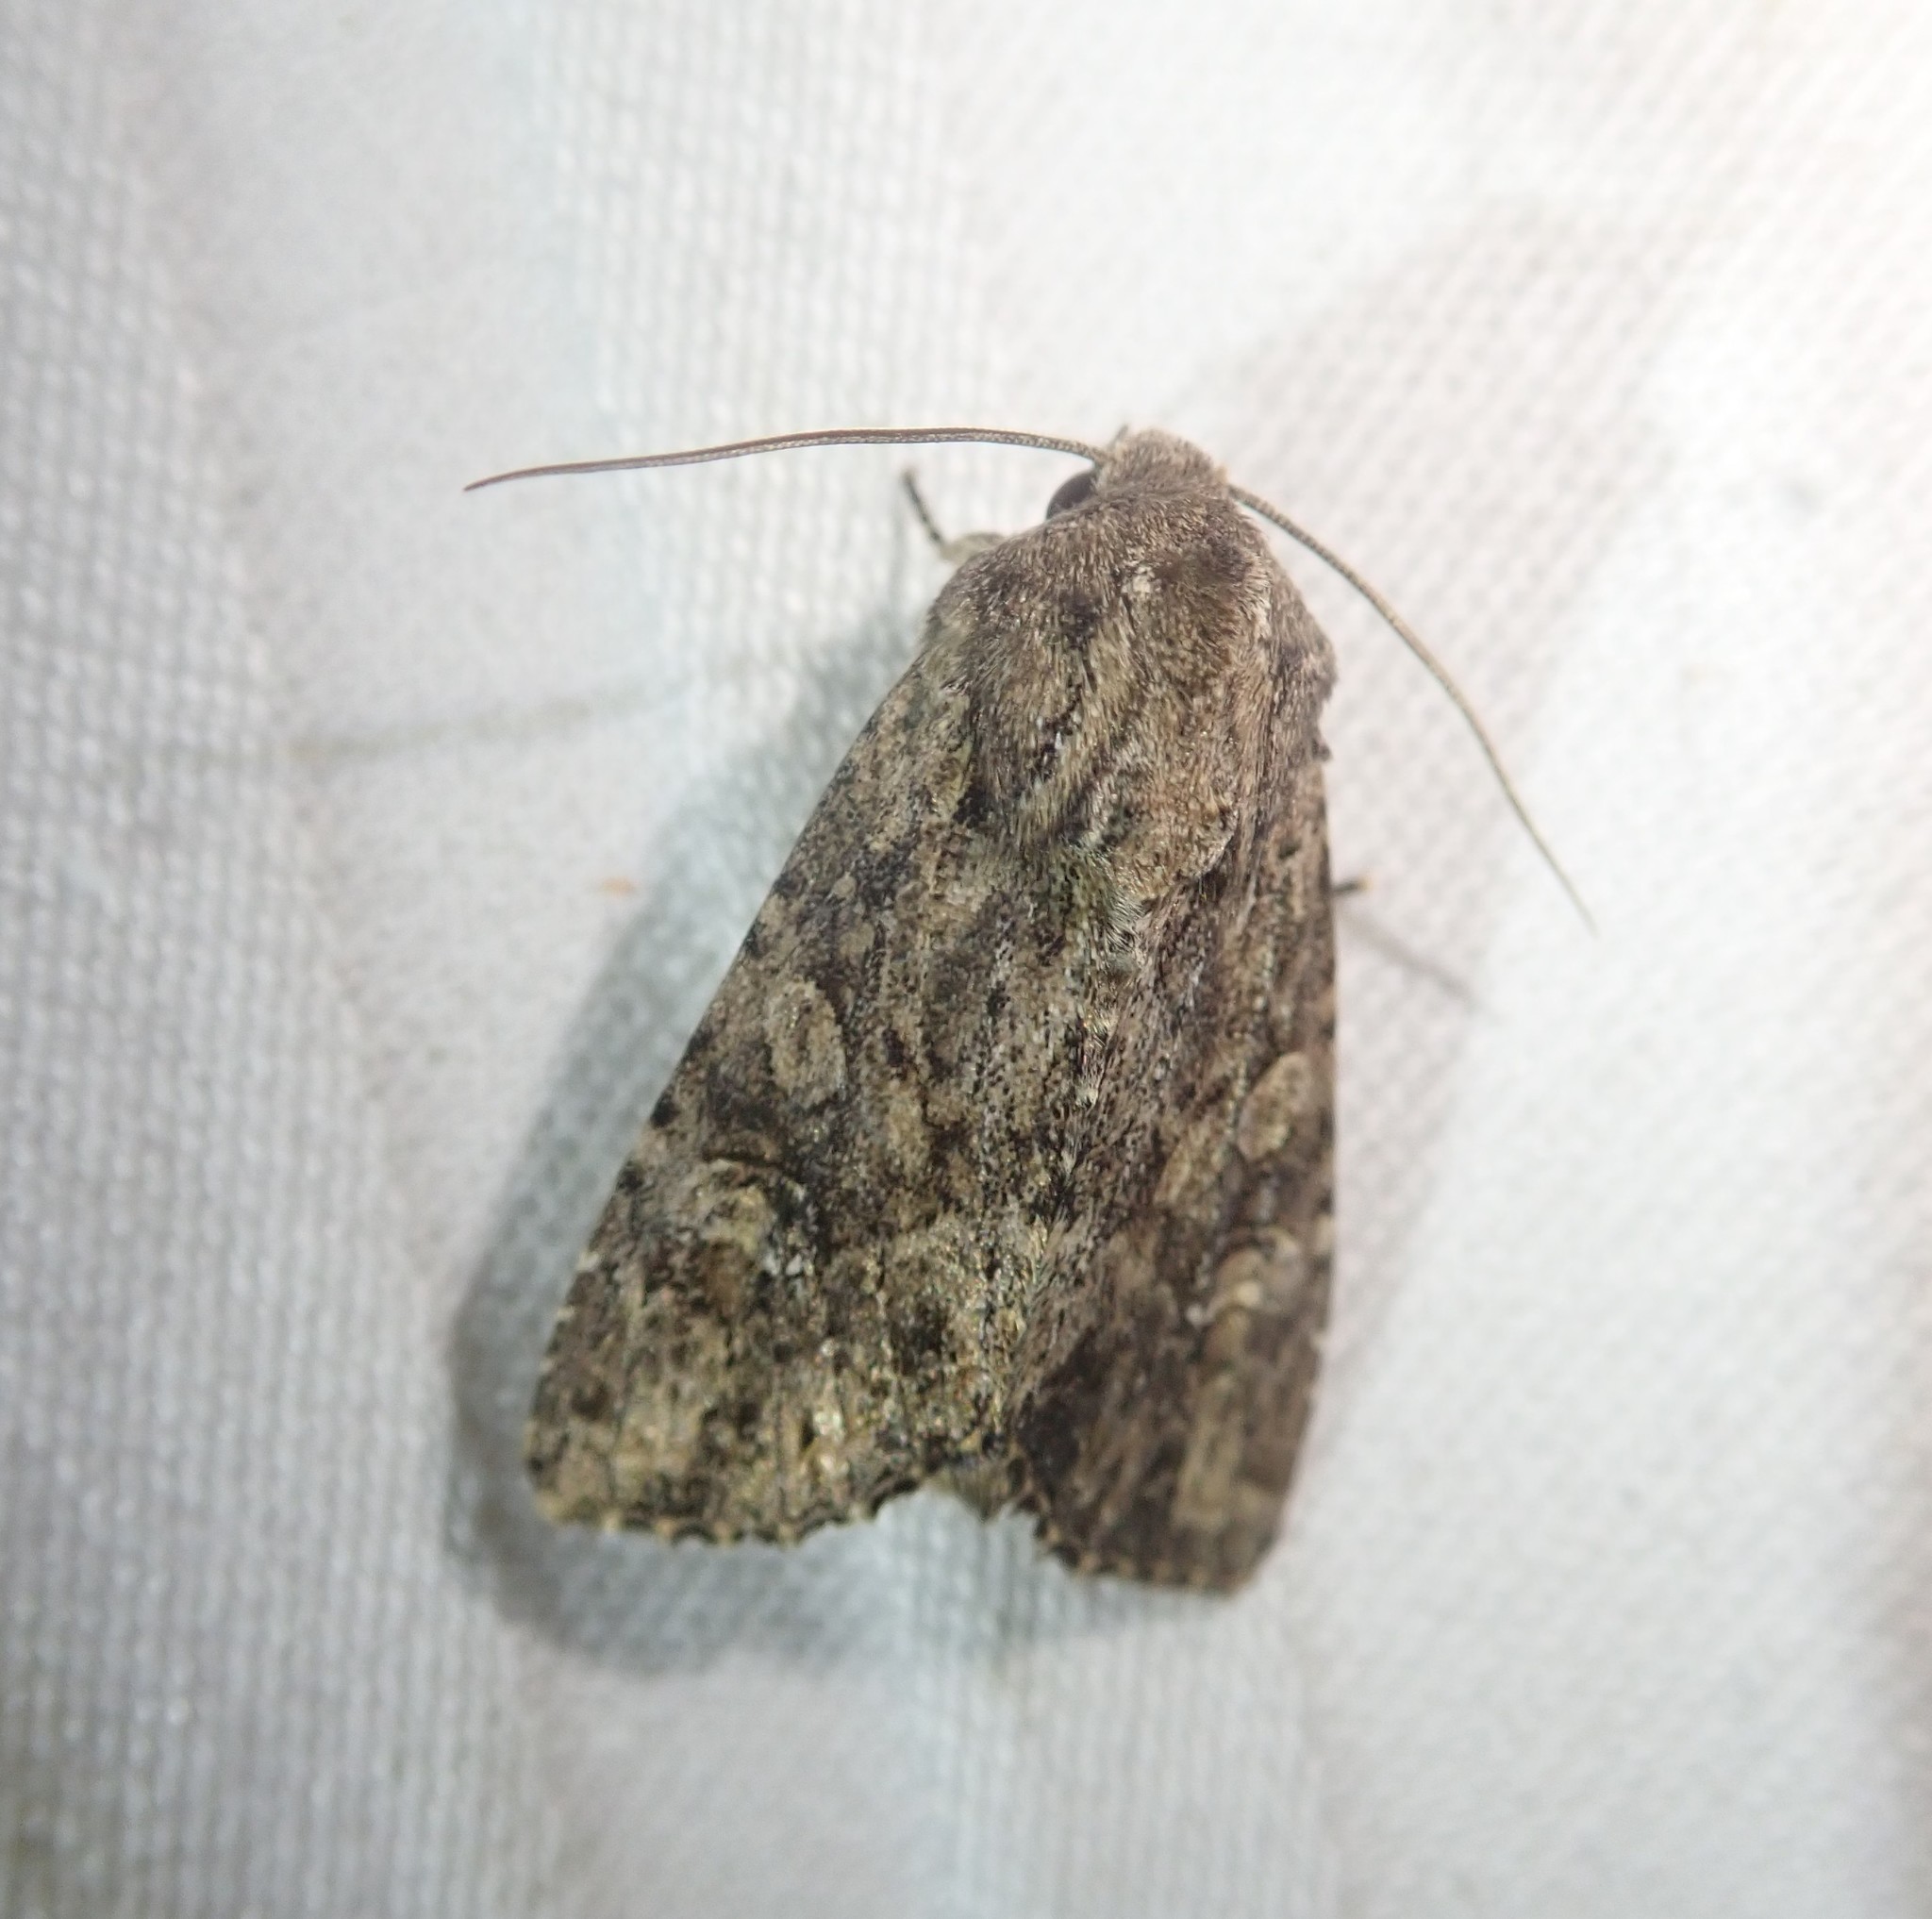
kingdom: Animalia
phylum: Arthropoda
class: Insecta
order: Lepidoptera
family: Noctuidae
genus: Apamea
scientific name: Apamea anceps
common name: Large nutmeg
